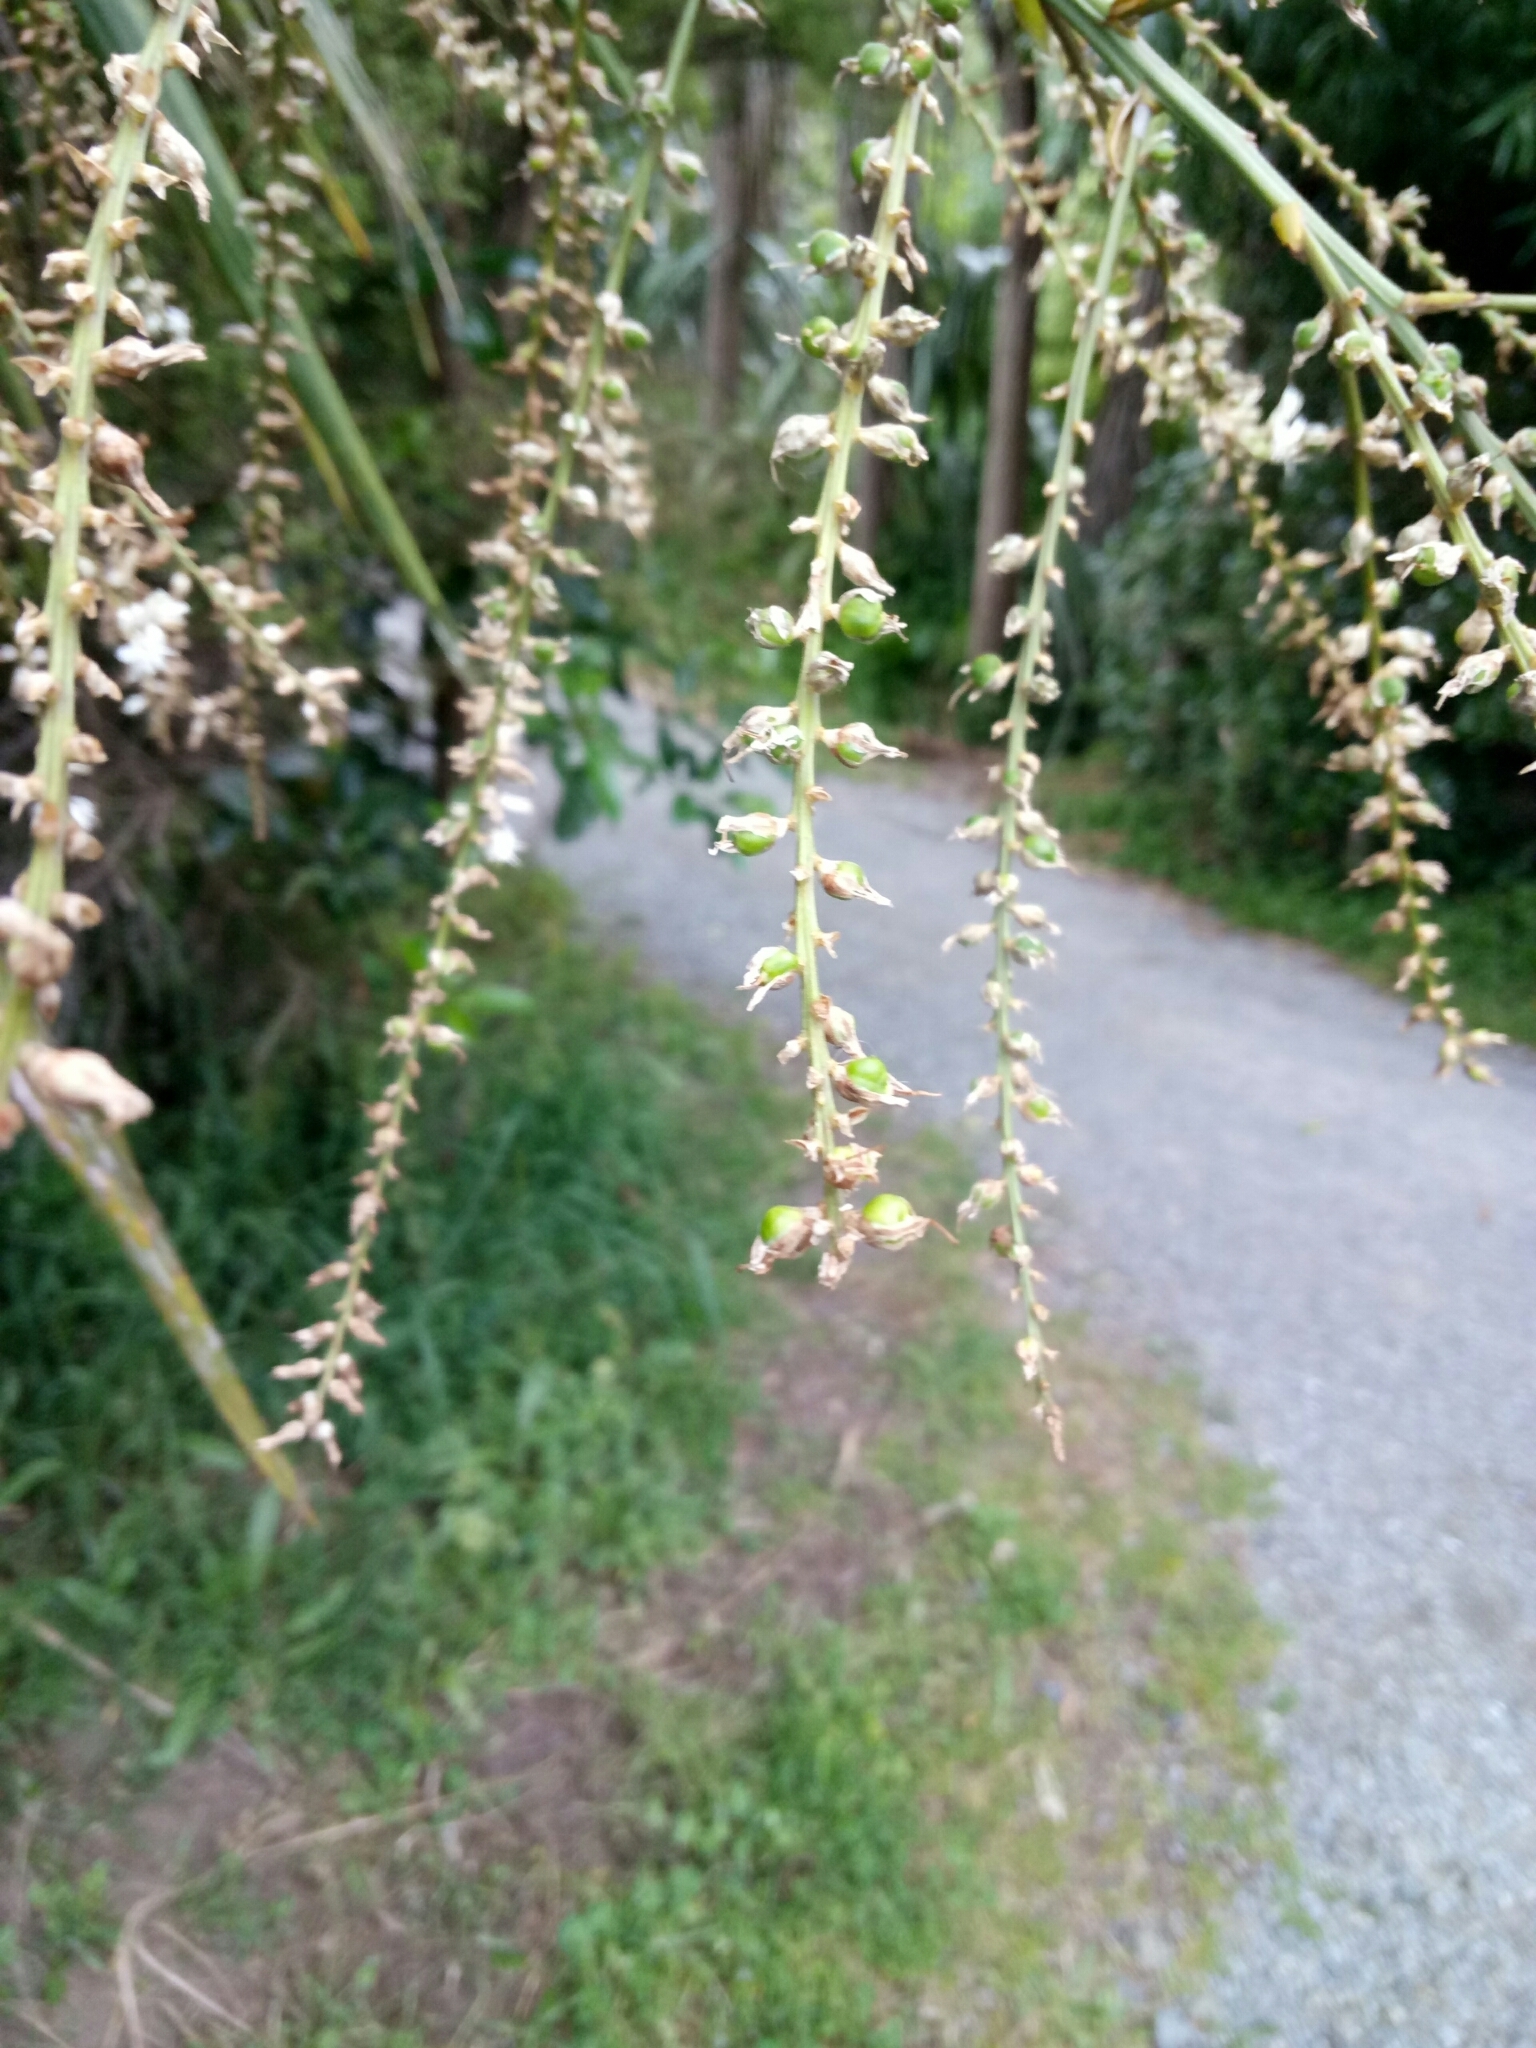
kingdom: Plantae
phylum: Tracheophyta
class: Liliopsida
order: Asparagales
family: Asparagaceae
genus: Cordyline
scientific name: Cordyline australis
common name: Cabbage-palm
